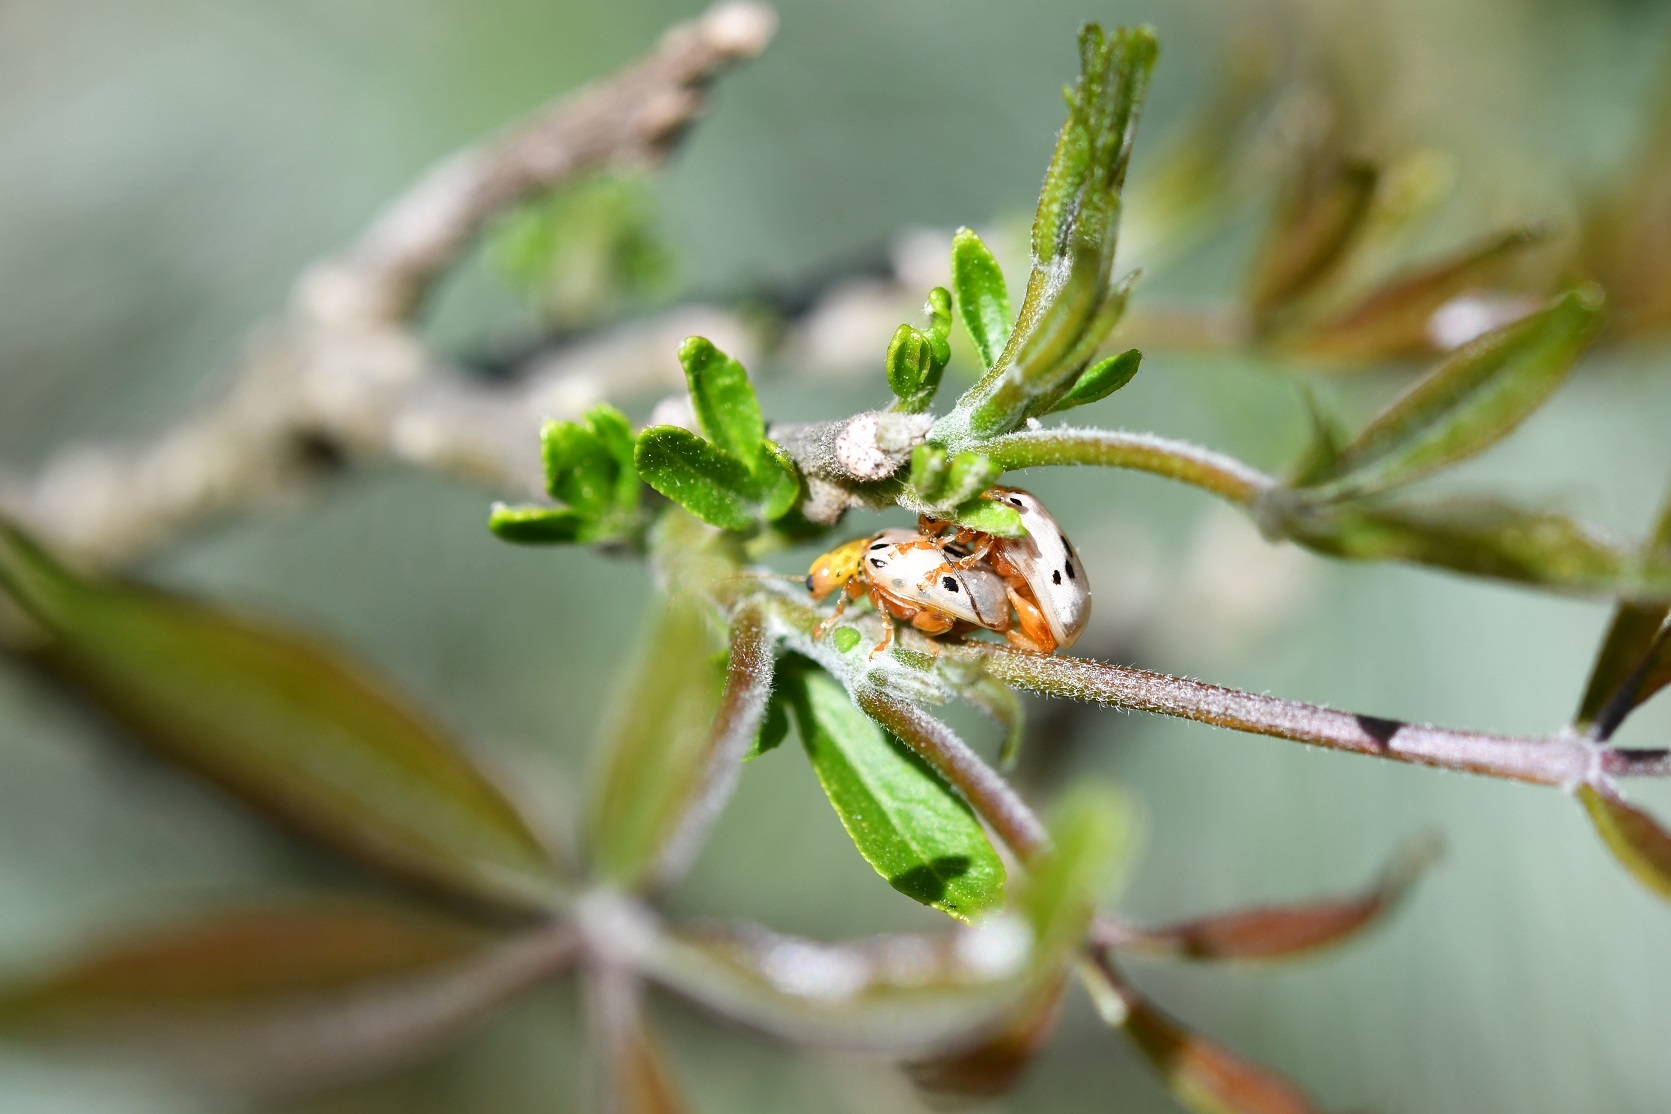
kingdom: Animalia
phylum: Arthropoda
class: Insecta
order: Coleoptera
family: Chrysomelidae
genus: Acrocyum
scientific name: Acrocyum sallaei
